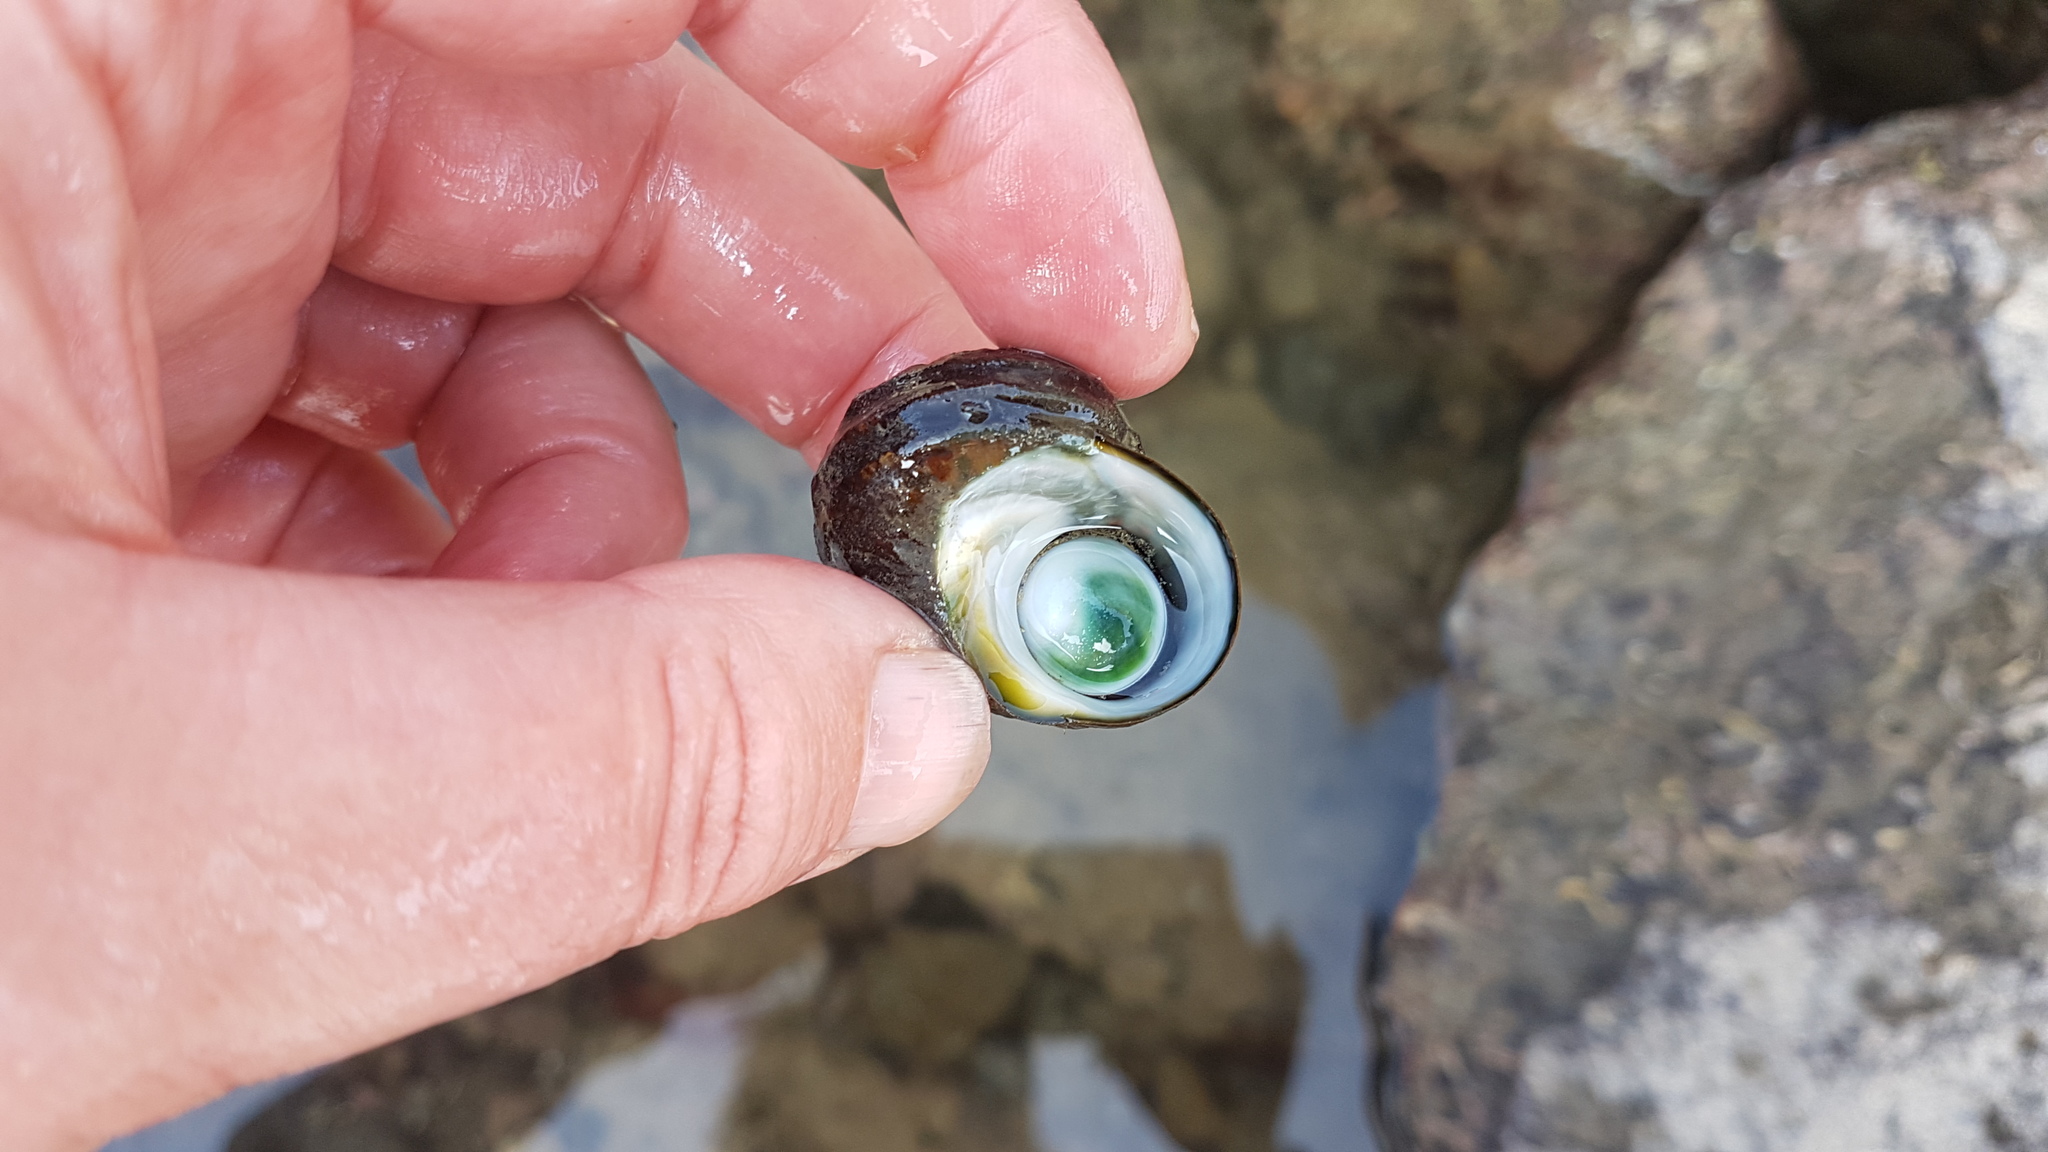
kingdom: Animalia
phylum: Mollusca
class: Gastropoda
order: Trochida
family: Turbinidae
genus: Lunella
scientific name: Lunella smaragda
